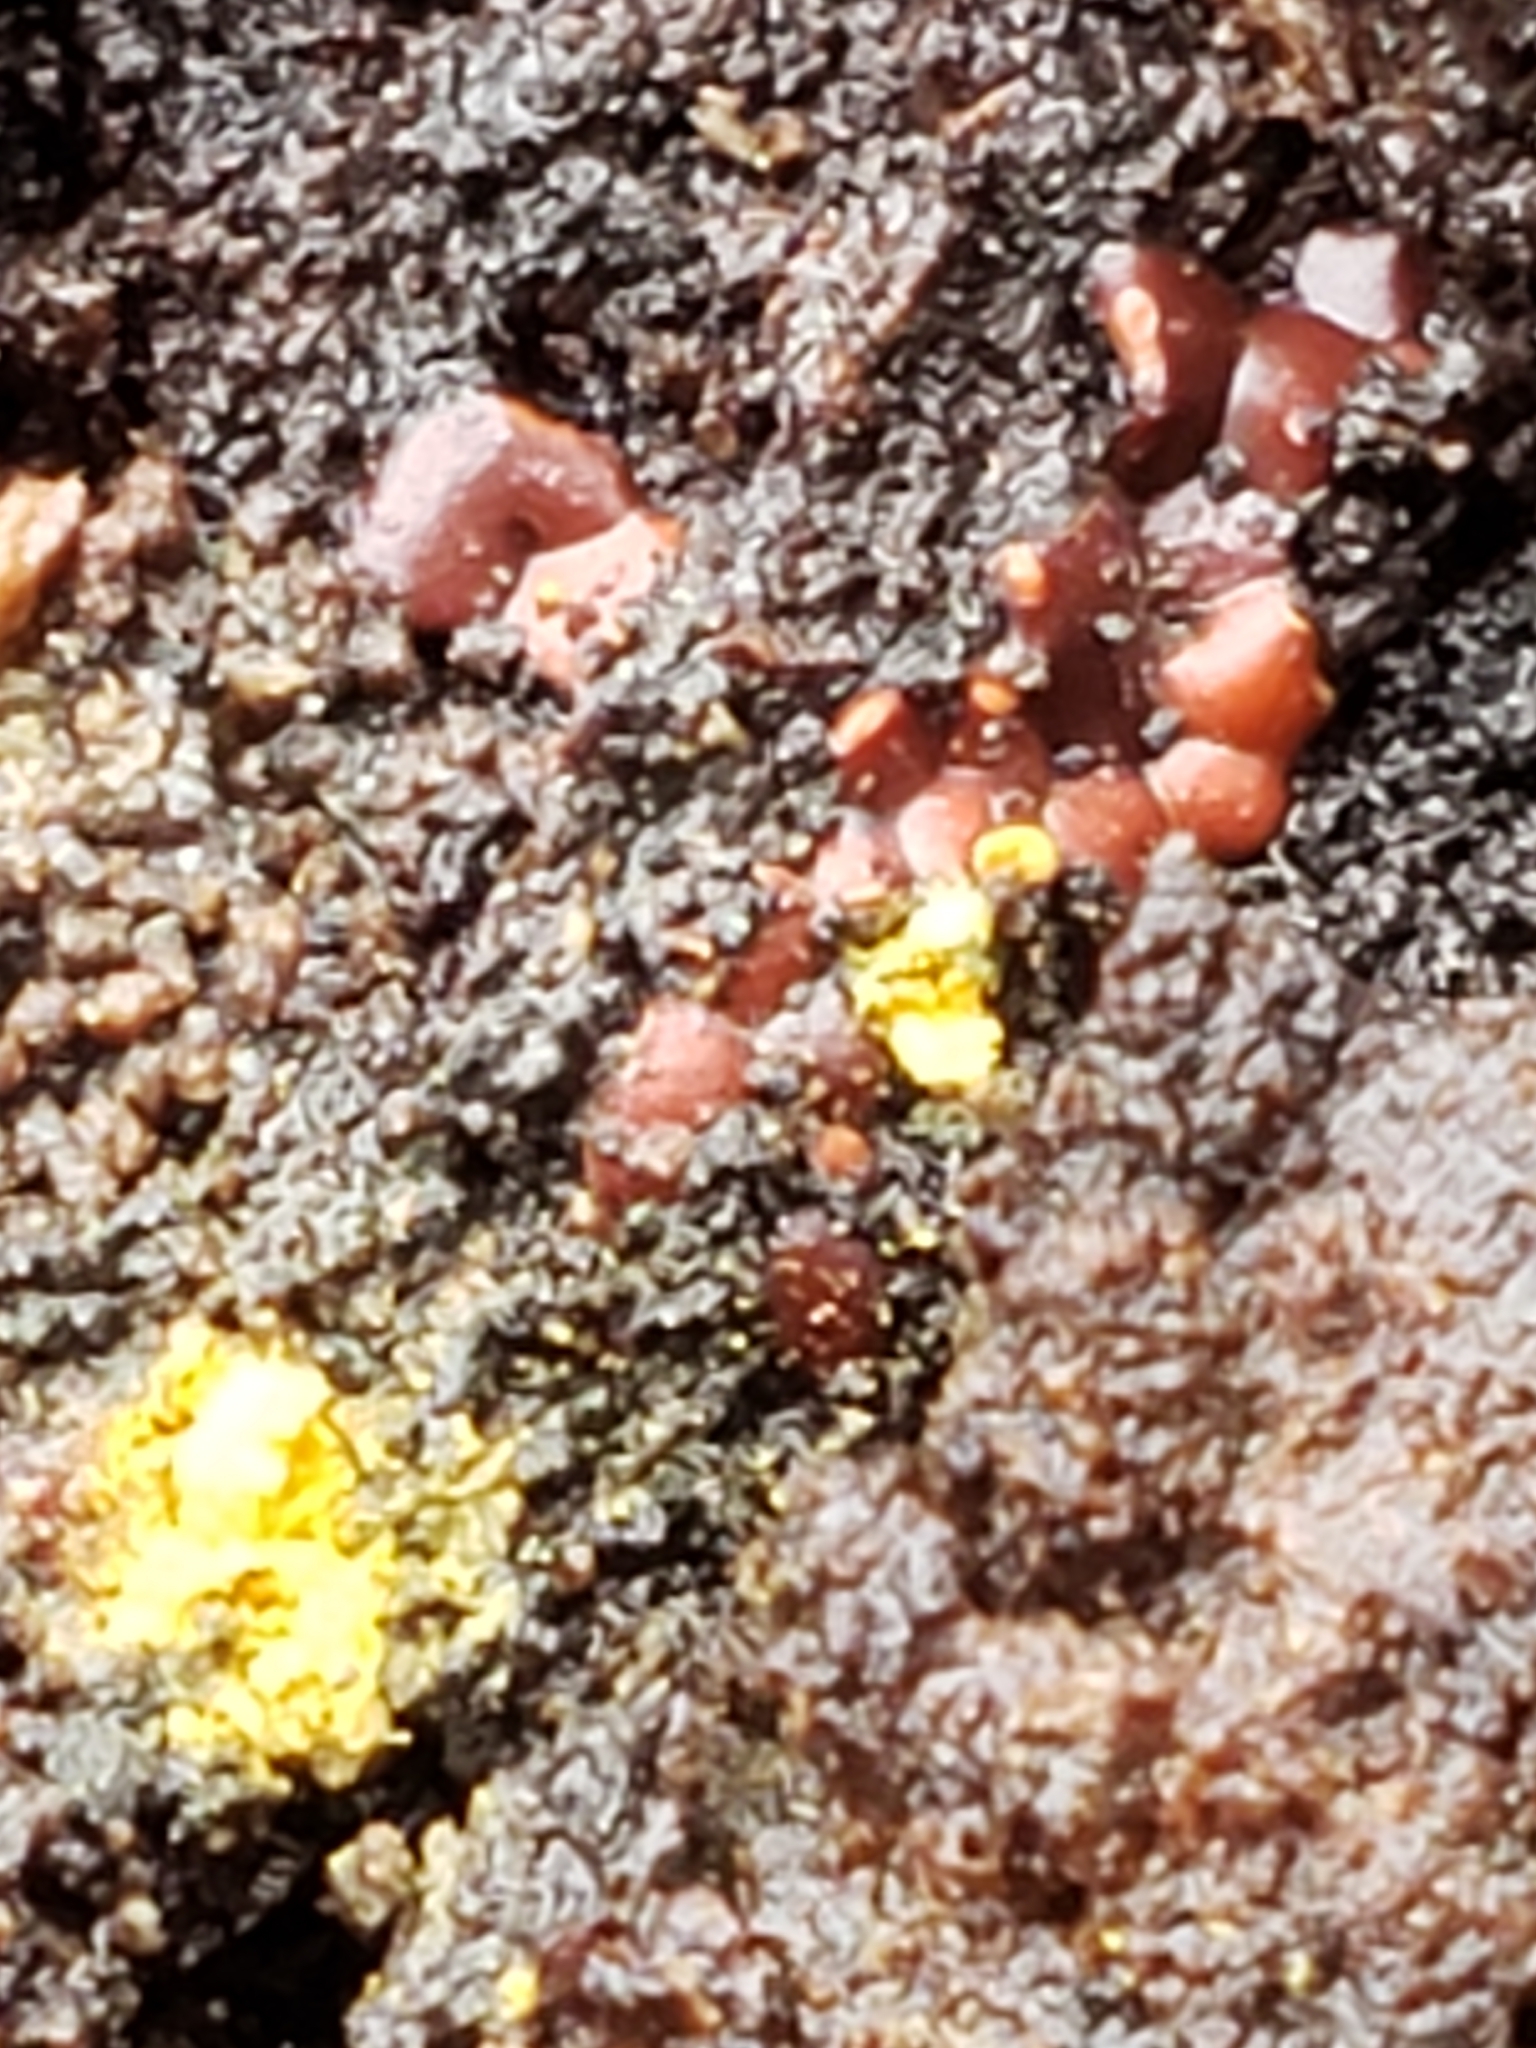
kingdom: Protozoa
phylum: Mycetozoa
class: Myxomycetes
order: Trichiales
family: Trichiaceae
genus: Perichaena
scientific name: Perichaena depressa
